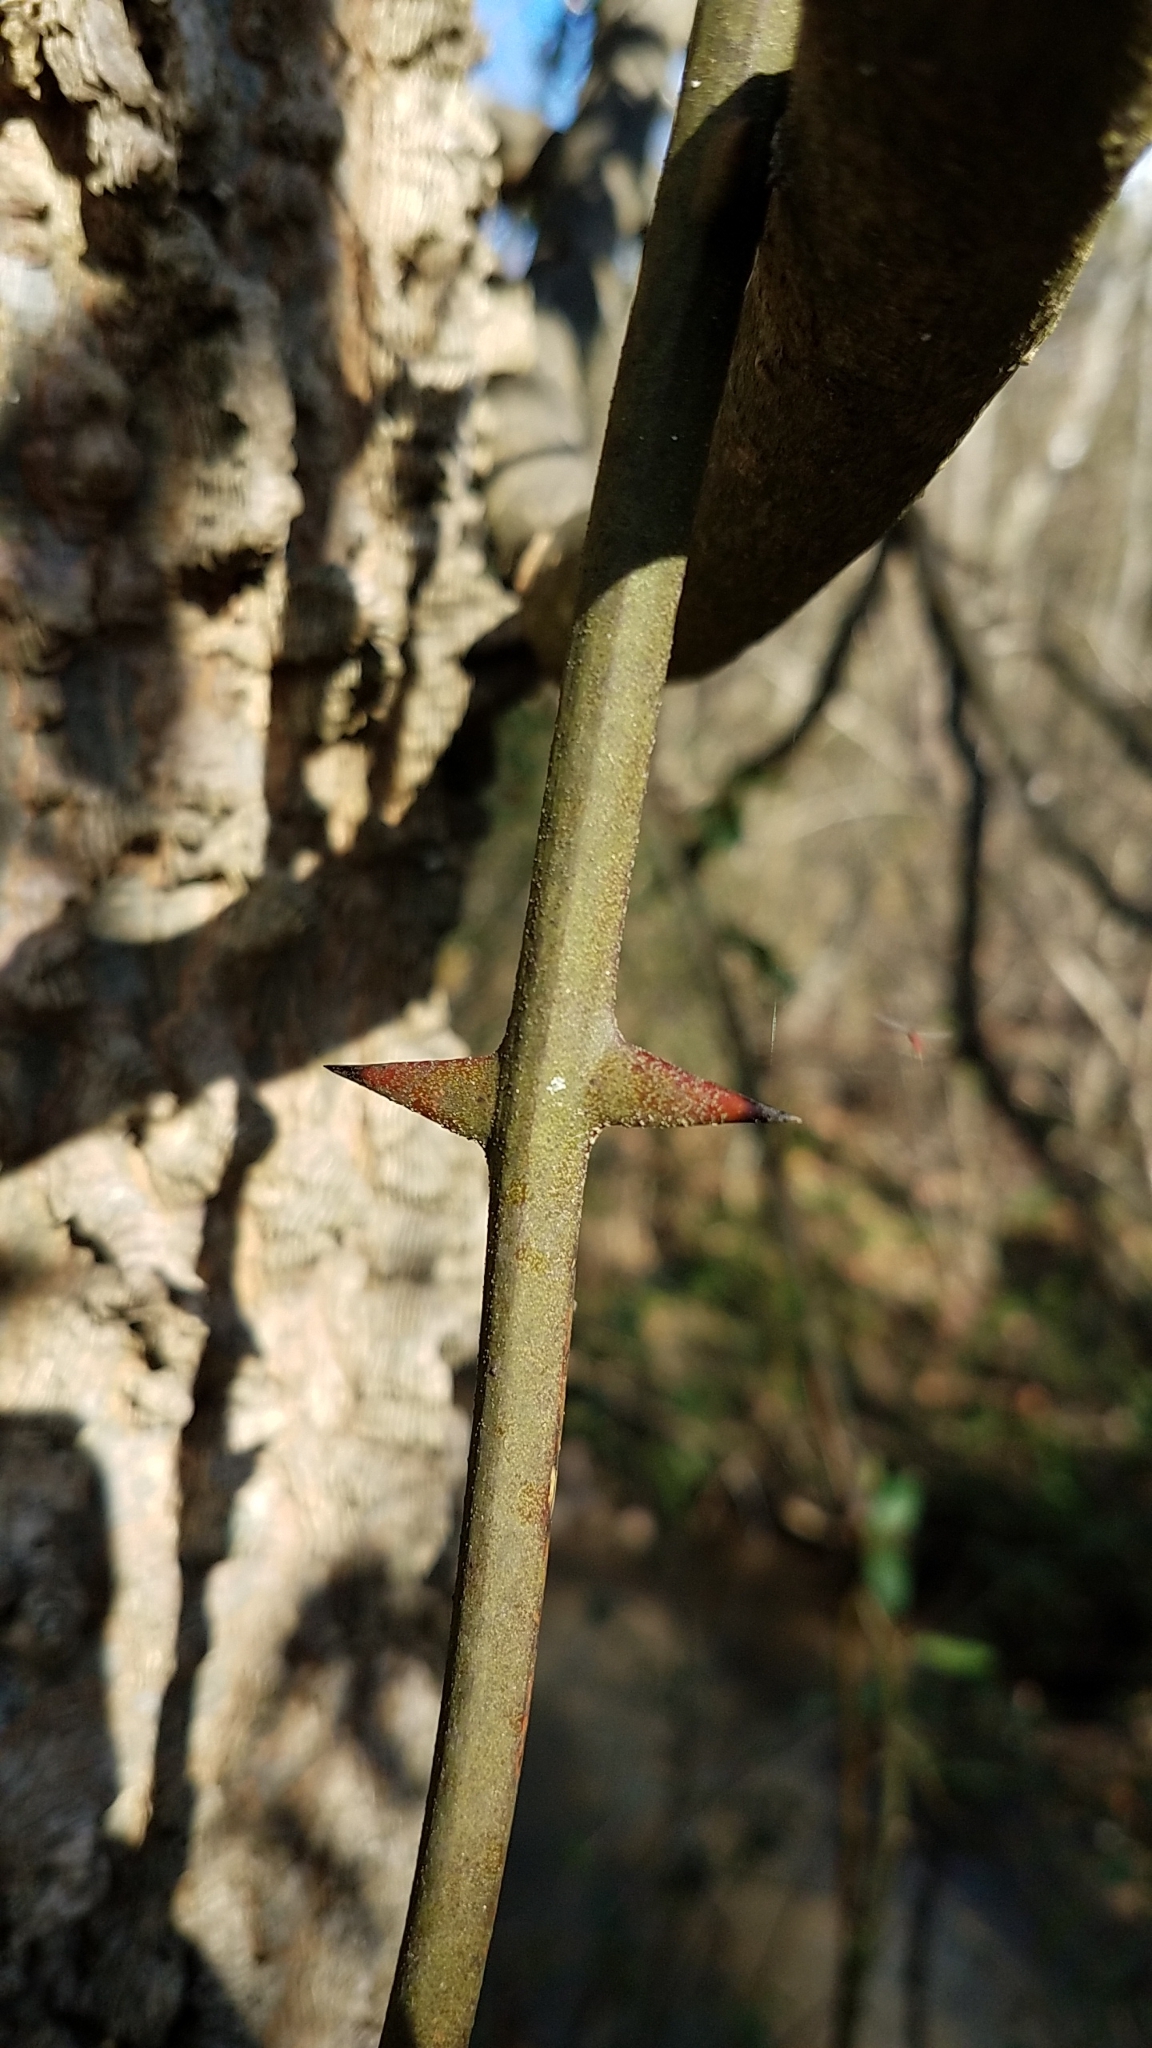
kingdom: Plantae
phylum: Tracheophyta
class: Liliopsida
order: Liliales
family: Smilacaceae
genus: Smilax
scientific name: Smilax rotundifolia
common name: Bullbriar
